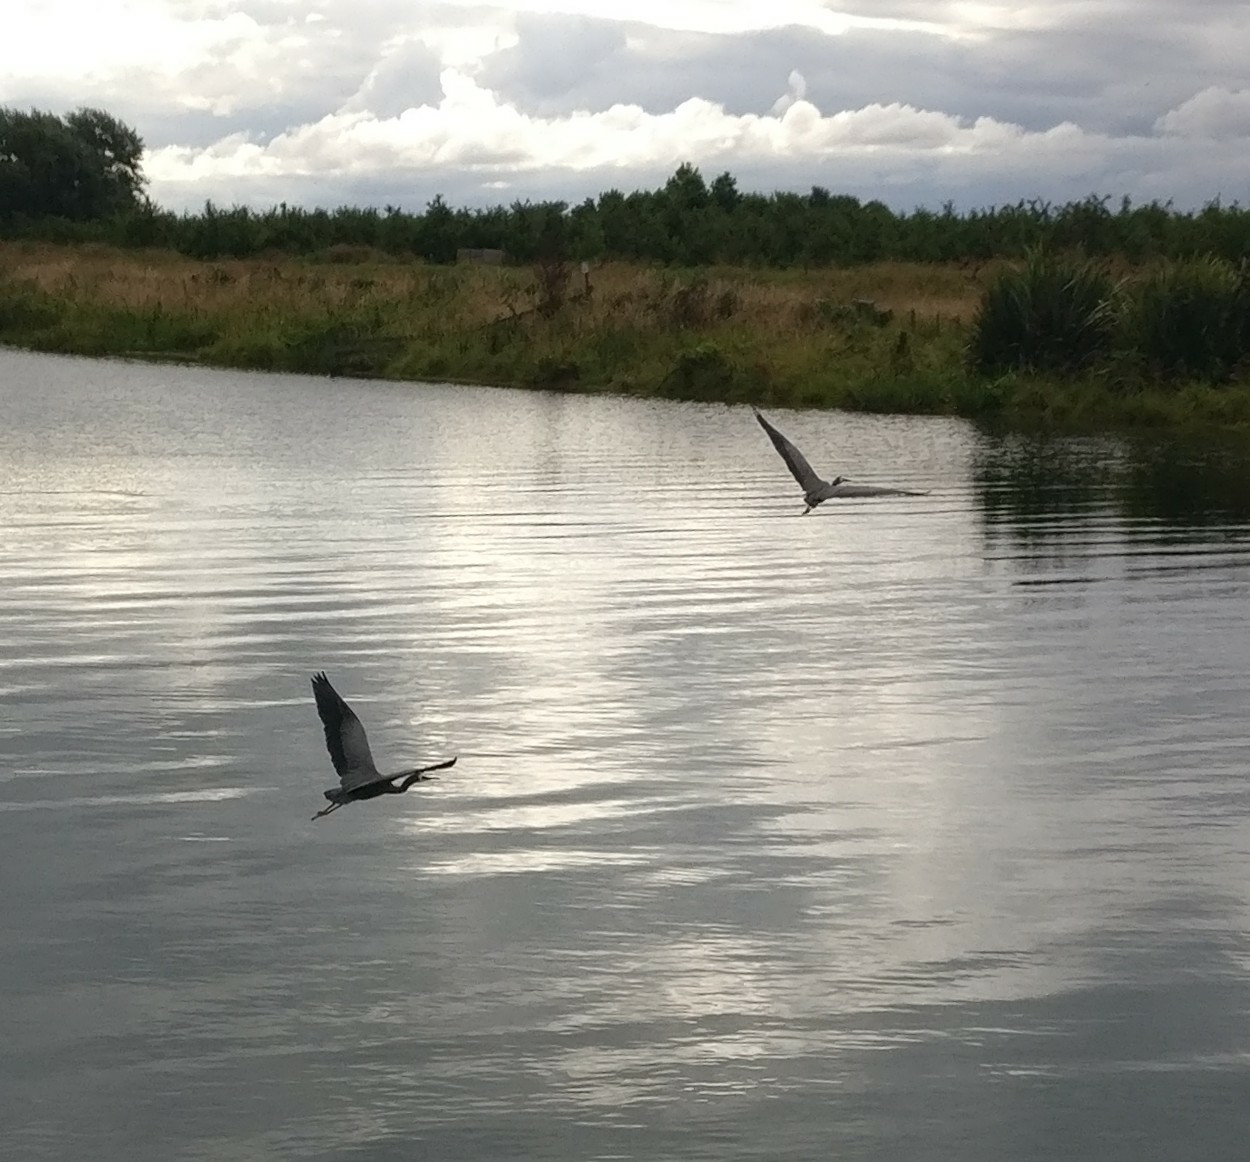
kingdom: Animalia
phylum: Chordata
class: Aves
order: Pelecaniformes
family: Ardeidae
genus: Egretta
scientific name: Egretta novaehollandiae
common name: White-faced heron
